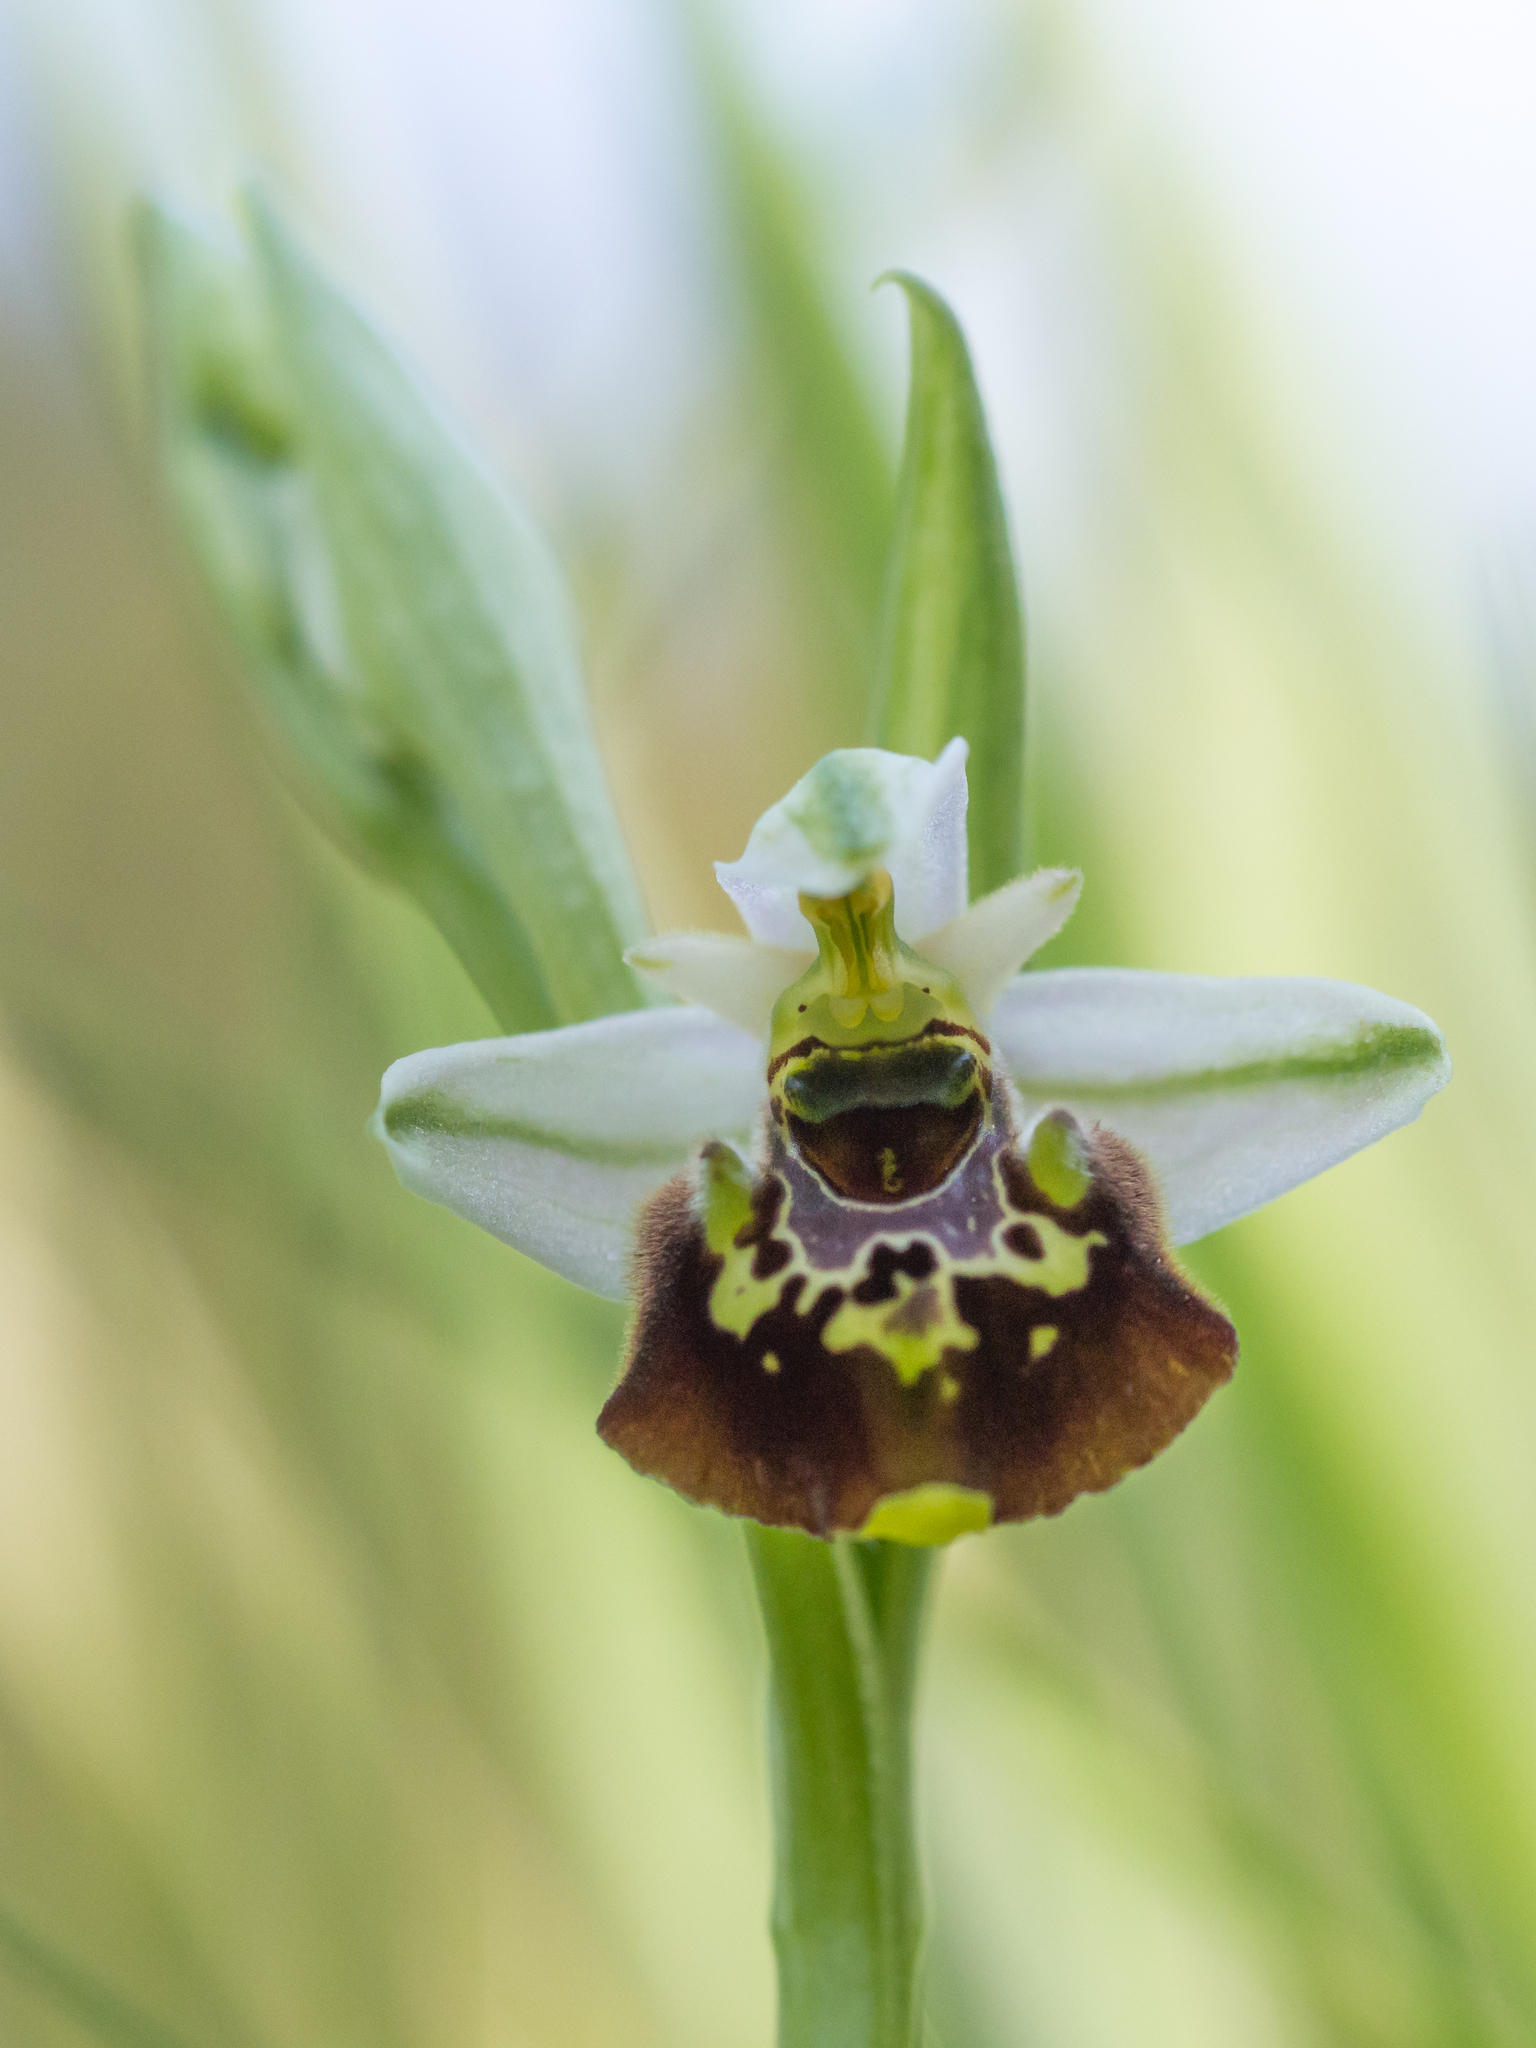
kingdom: Plantae
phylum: Tracheophyta
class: Liliopsida
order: Asparagales
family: Orchidaceae
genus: Ophrys
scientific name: Ophrys holosericea
